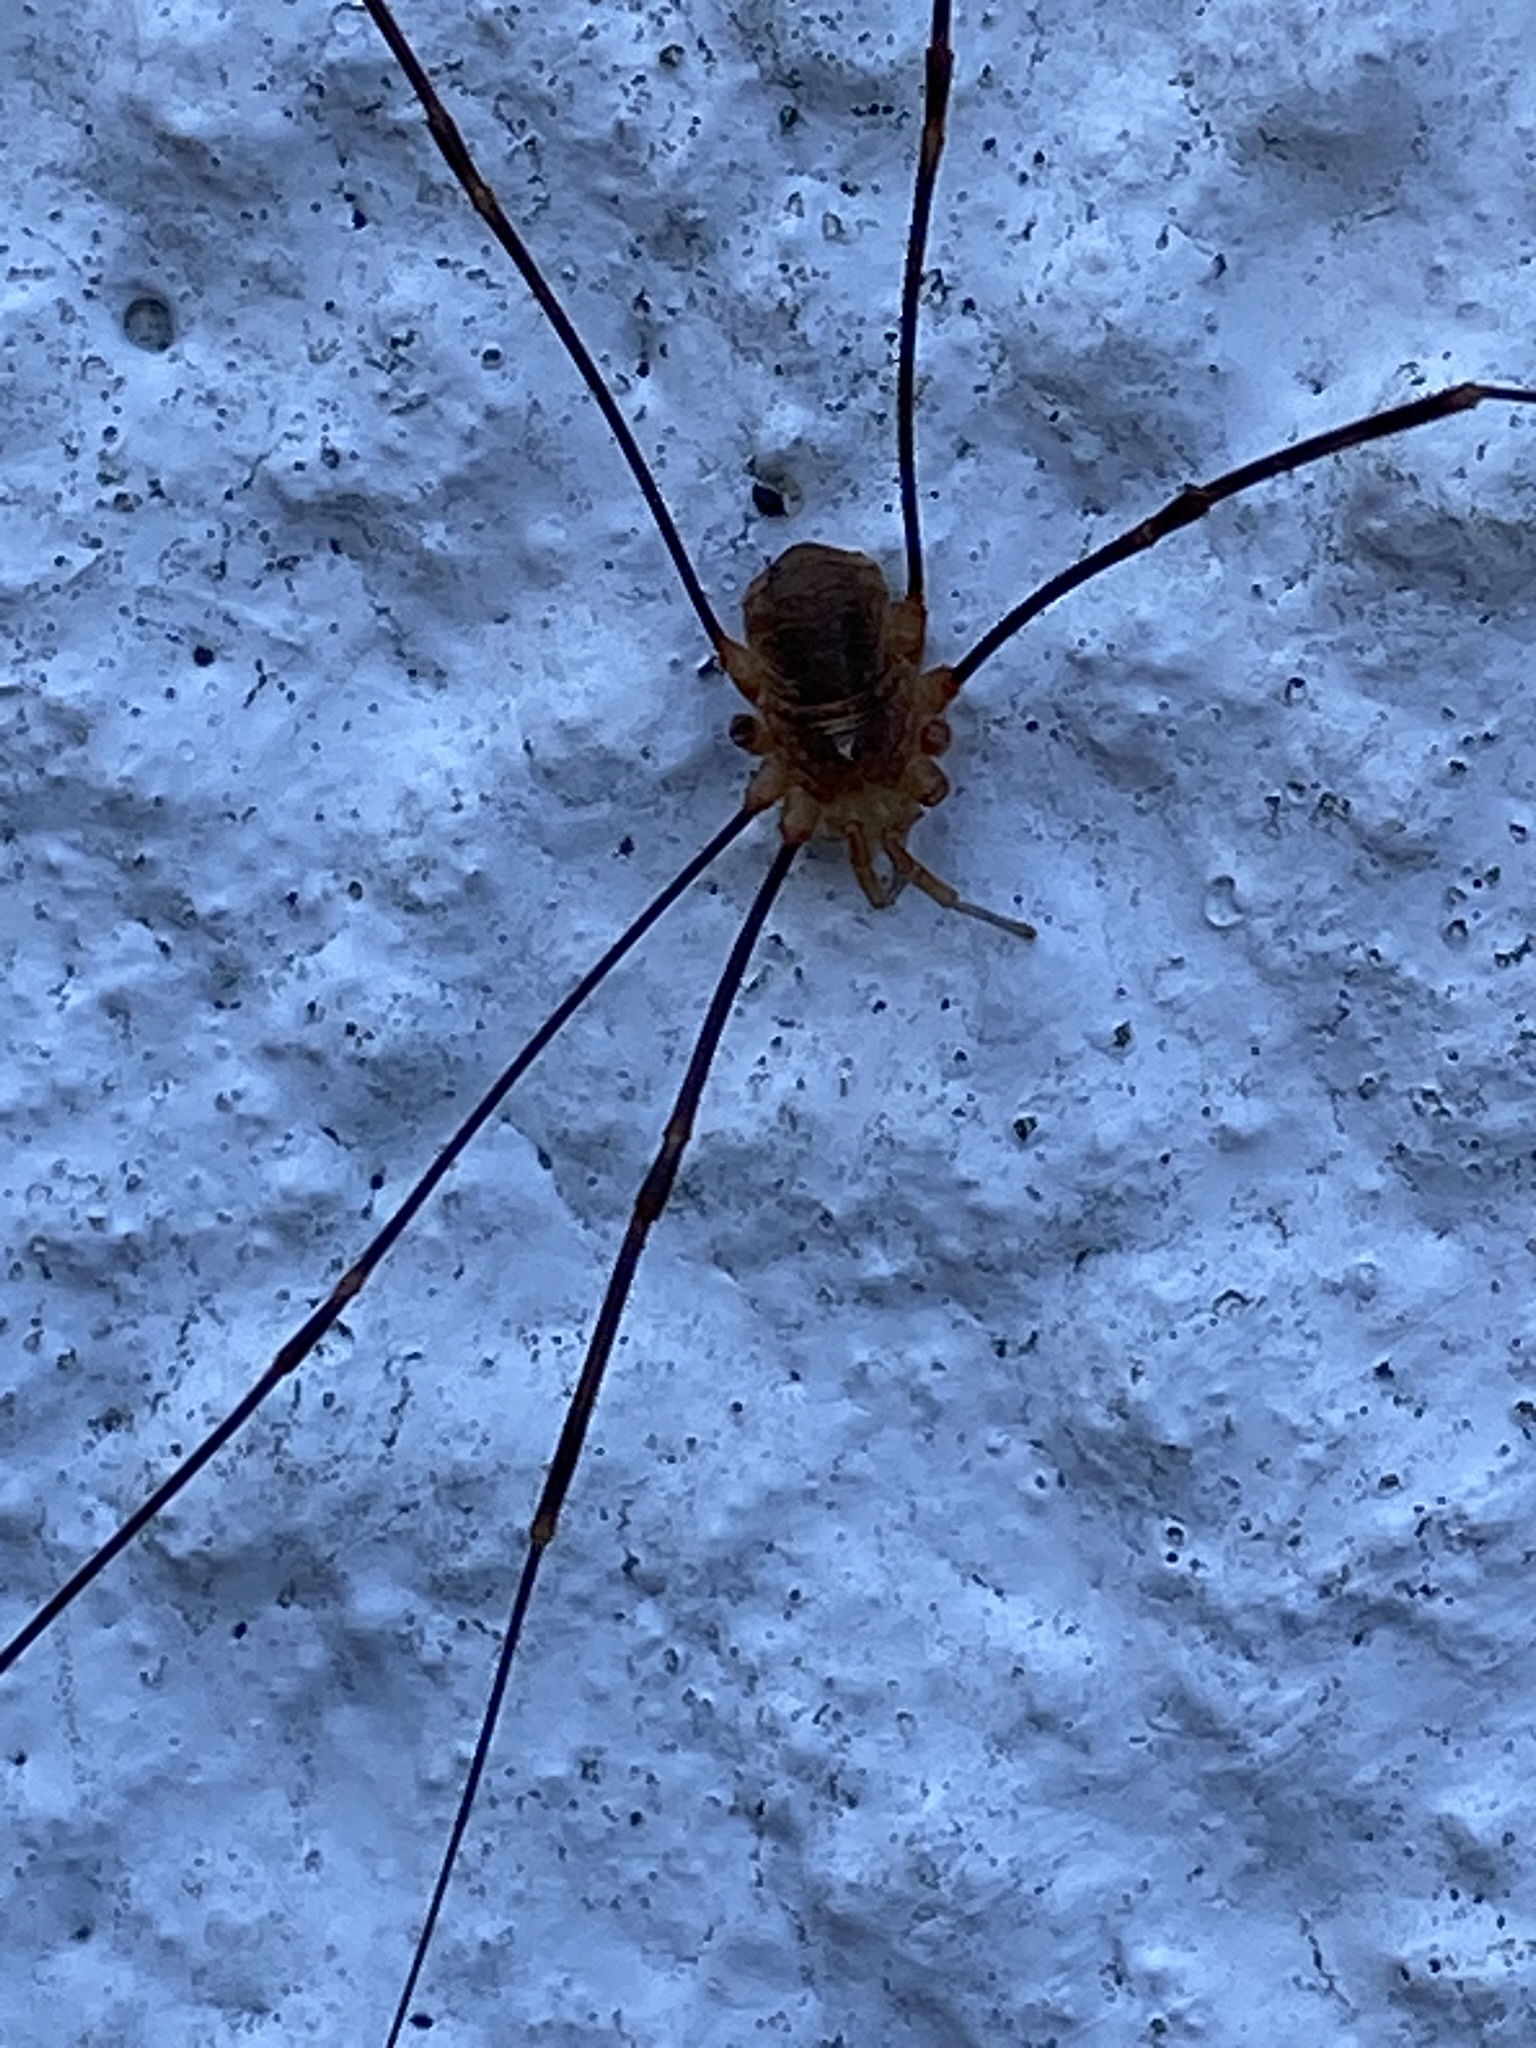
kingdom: Animalia
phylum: Arthropoda
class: Arachnida
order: Opiliones
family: Phalangiidae
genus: Opilio
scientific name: Opilio canestrinii
